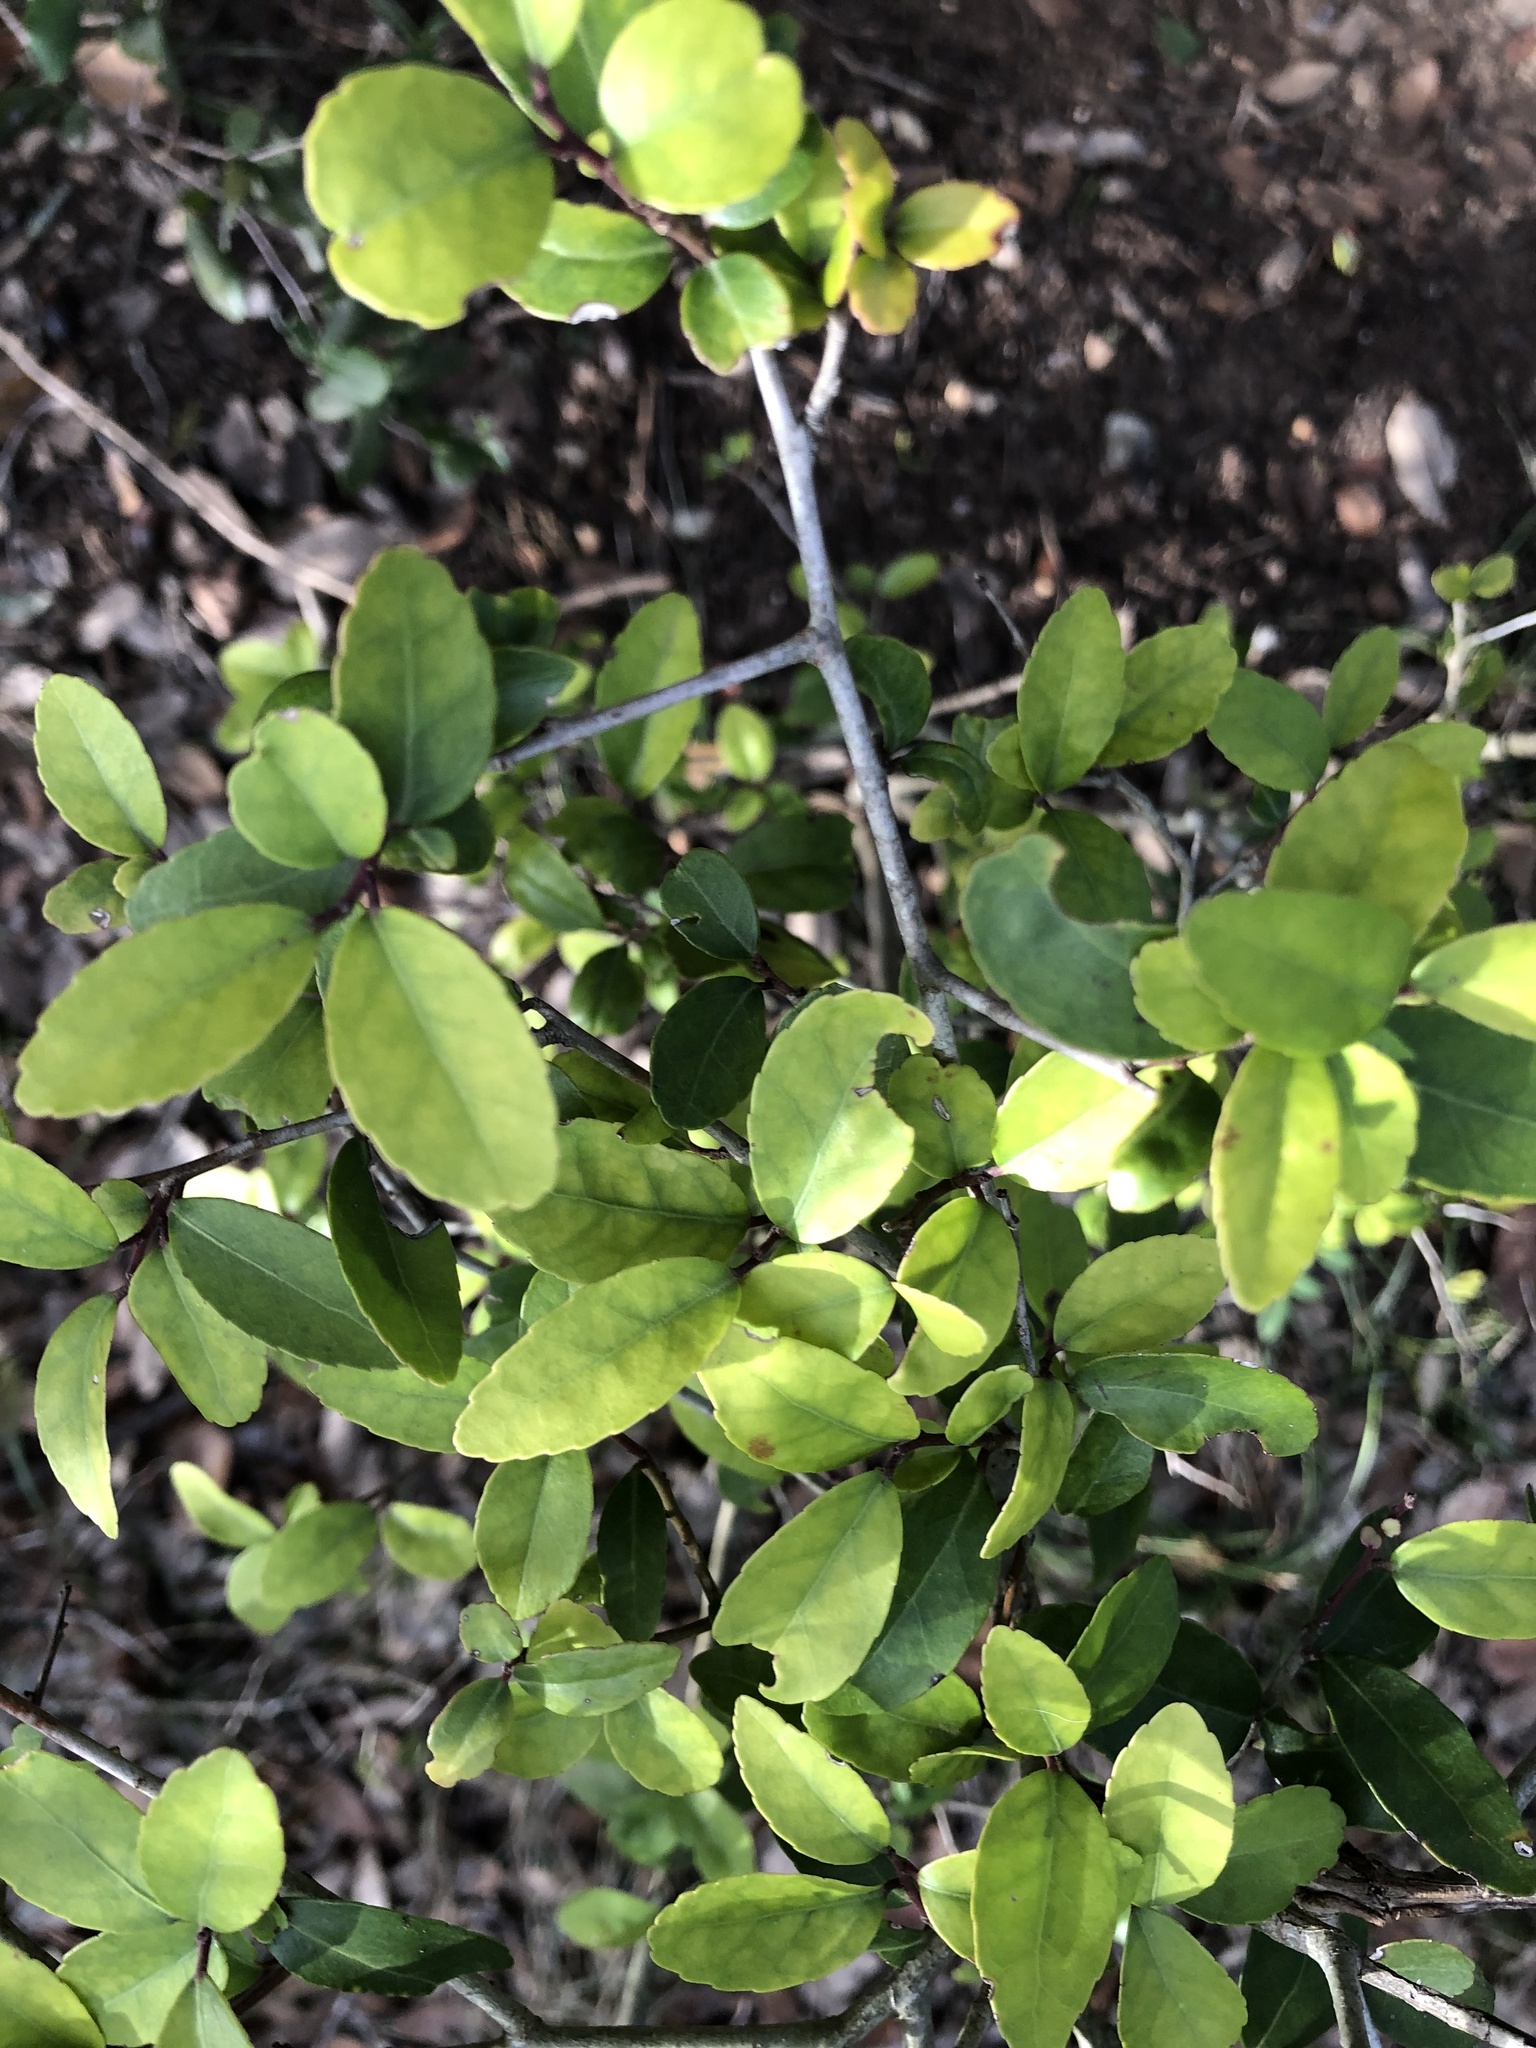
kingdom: Plantae
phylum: Tracheophyta
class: Magnoliopsida
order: Aquifoliales
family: Aquifoliaceae
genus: Ilex
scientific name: Ilex vomitoria
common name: Yaupon holly
